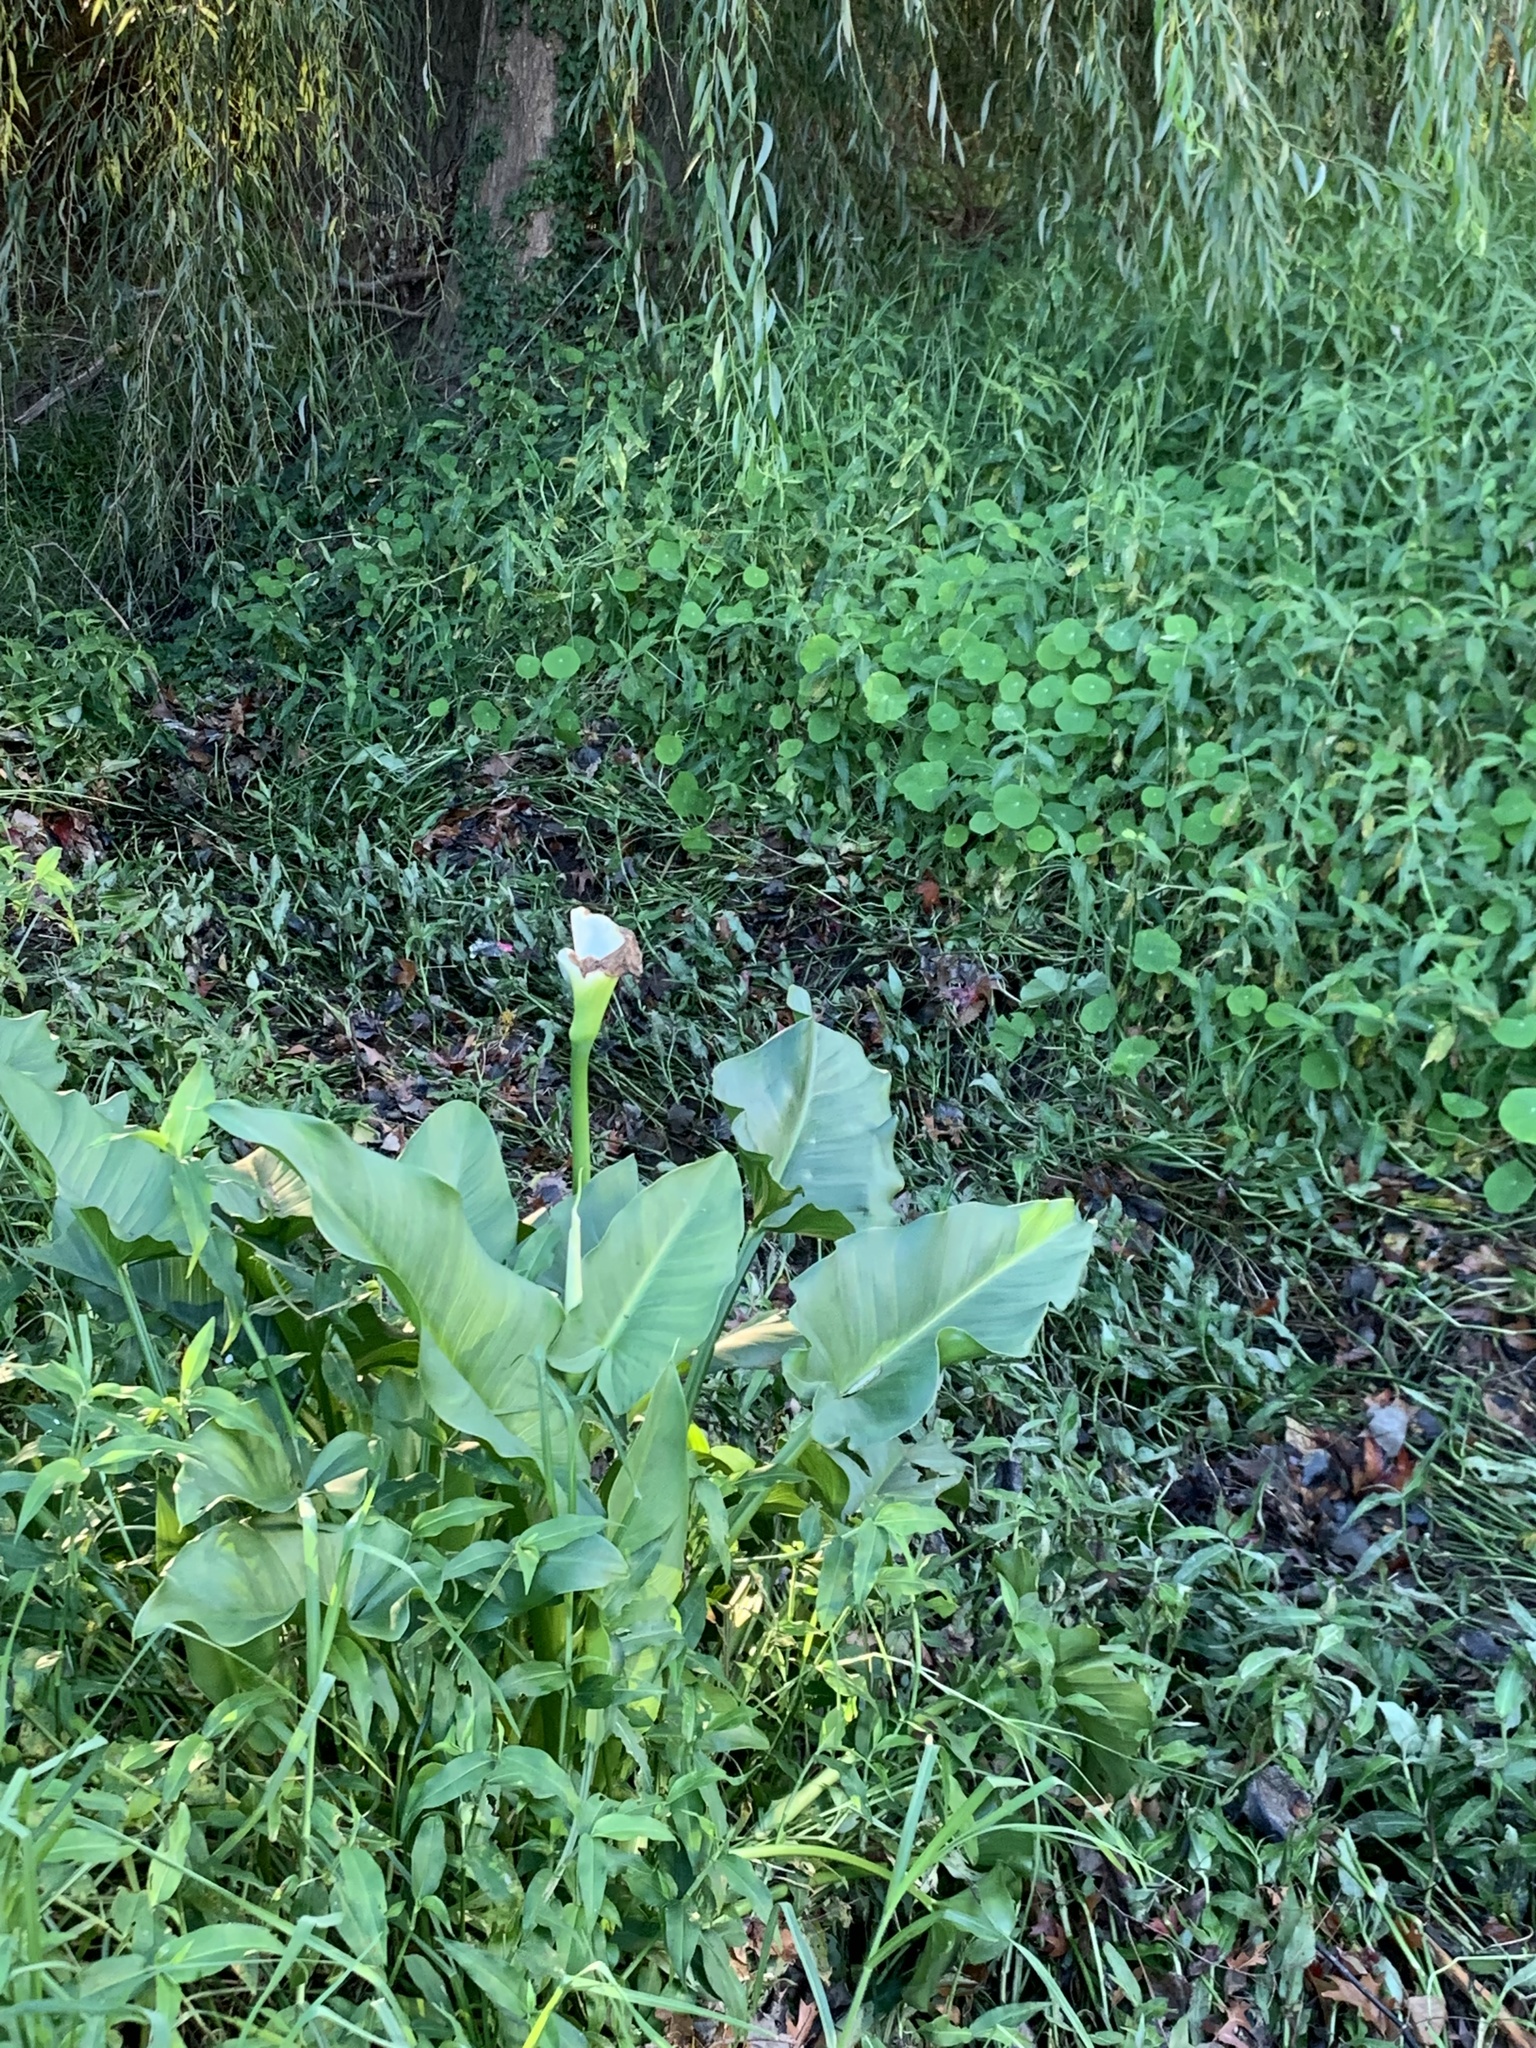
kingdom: Plantae
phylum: Tracheophyta
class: Liliopsida
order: Alismatales
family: Araceae
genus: Zantedeschia
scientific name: Zantedeschia aethiopica
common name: Altar-lily
